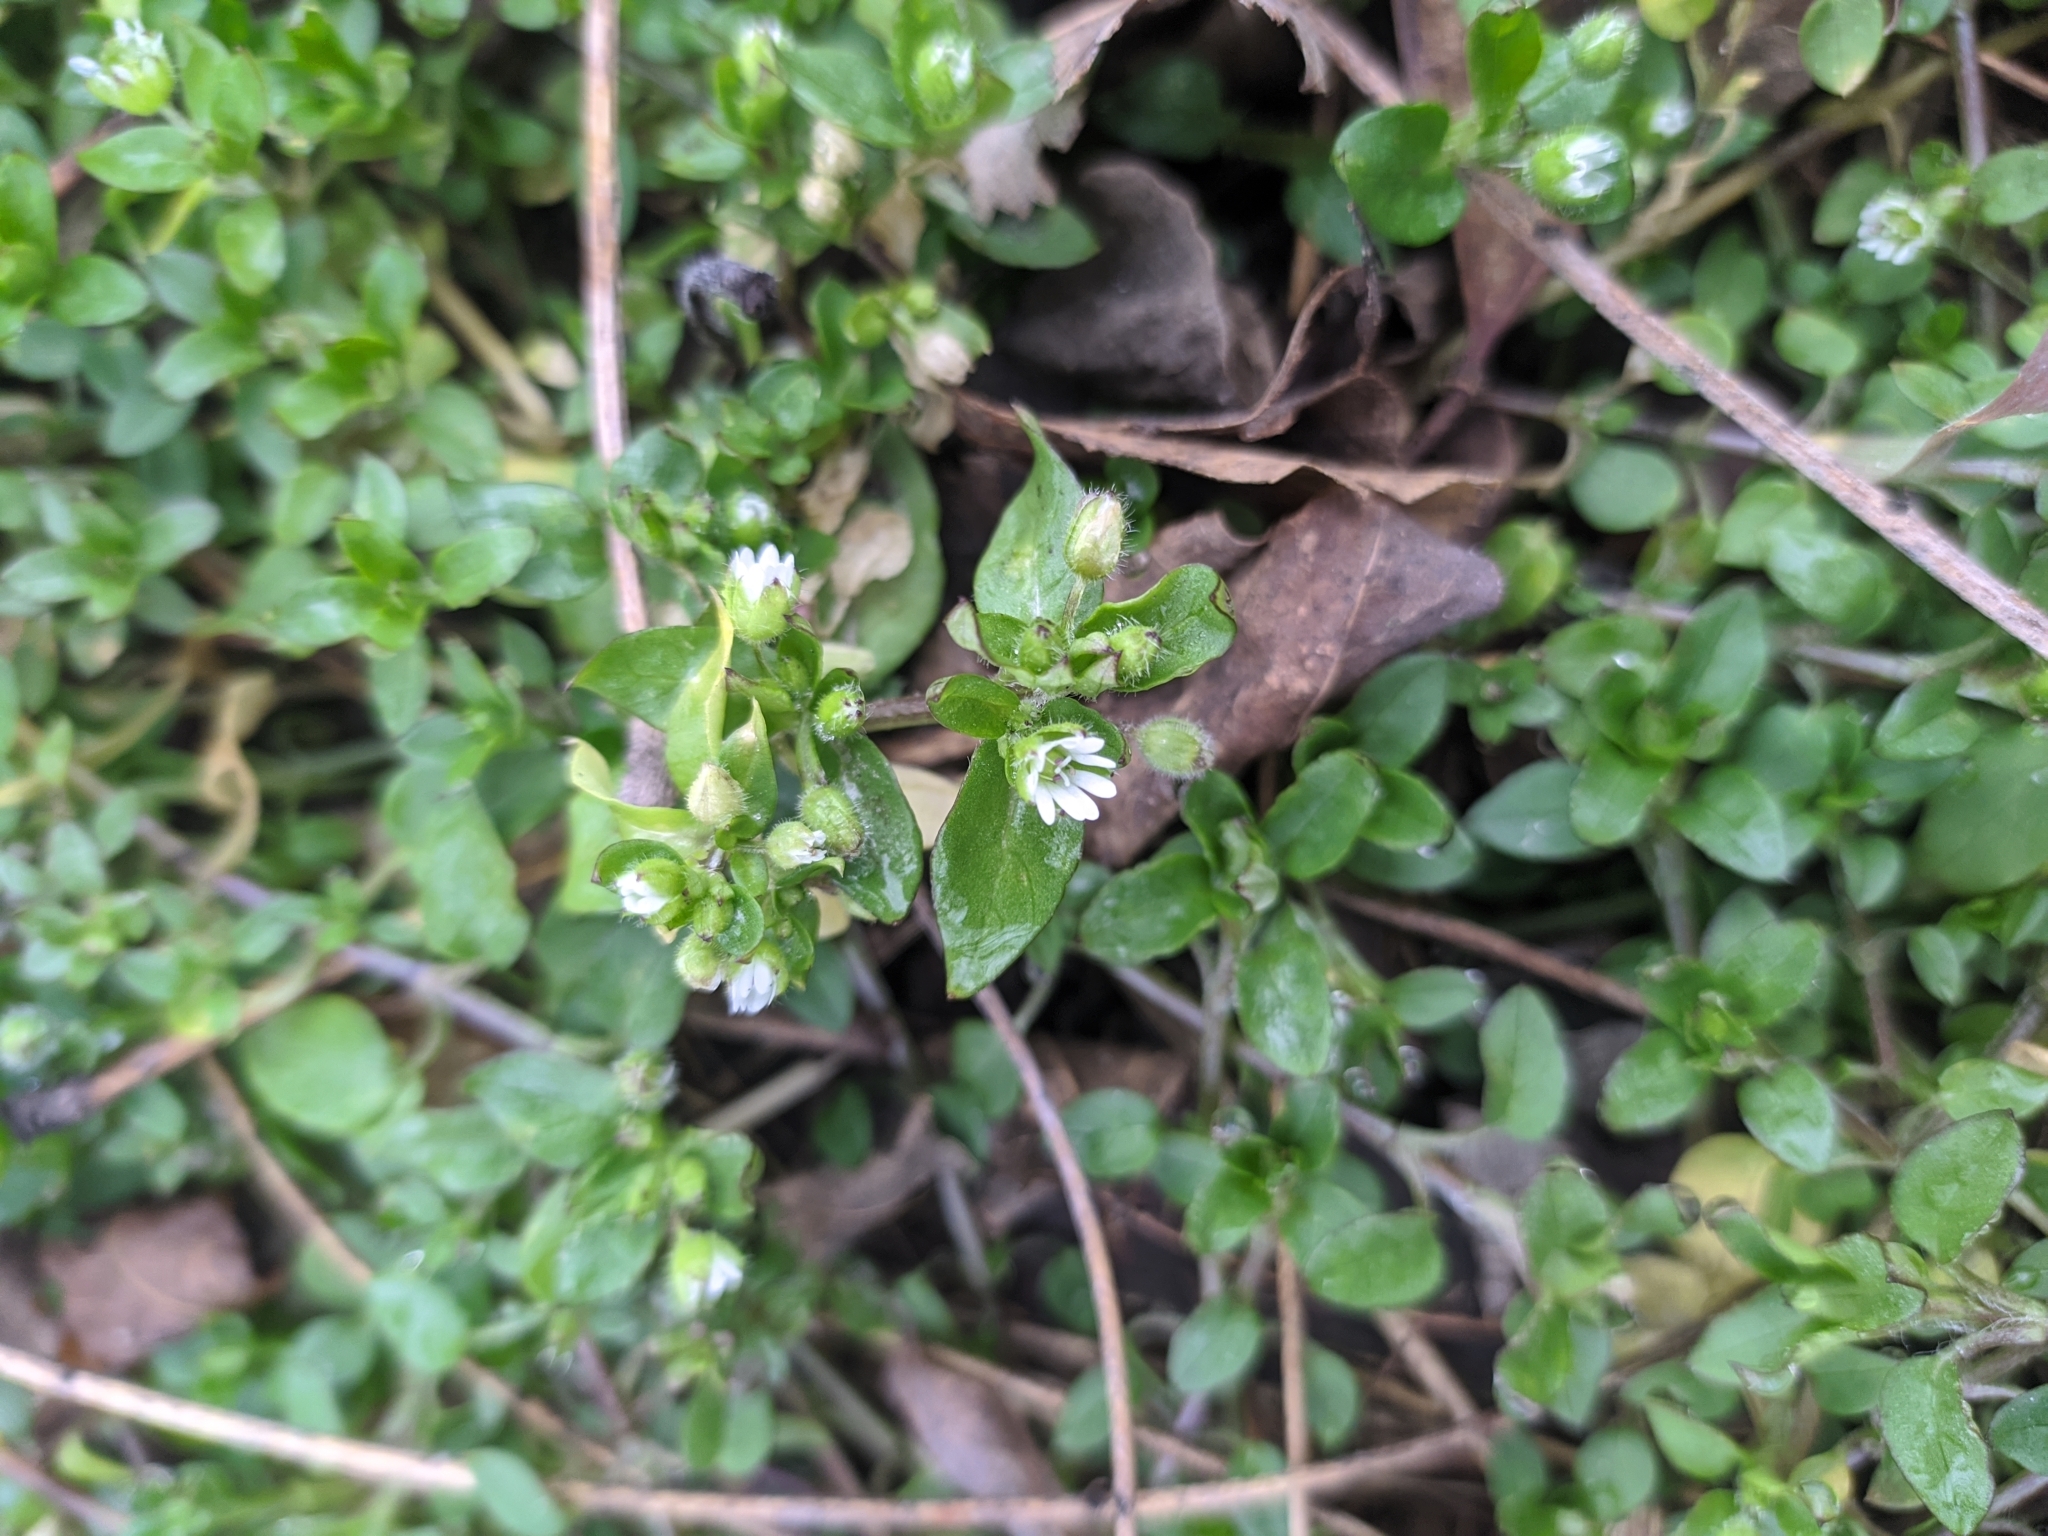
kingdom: Plantae
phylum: Tracheophyta
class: Magnoliopsida
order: Caryophyllales
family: Caryophyllaceae
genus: Stellaria
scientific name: Stellaria media
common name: Common chickweed
